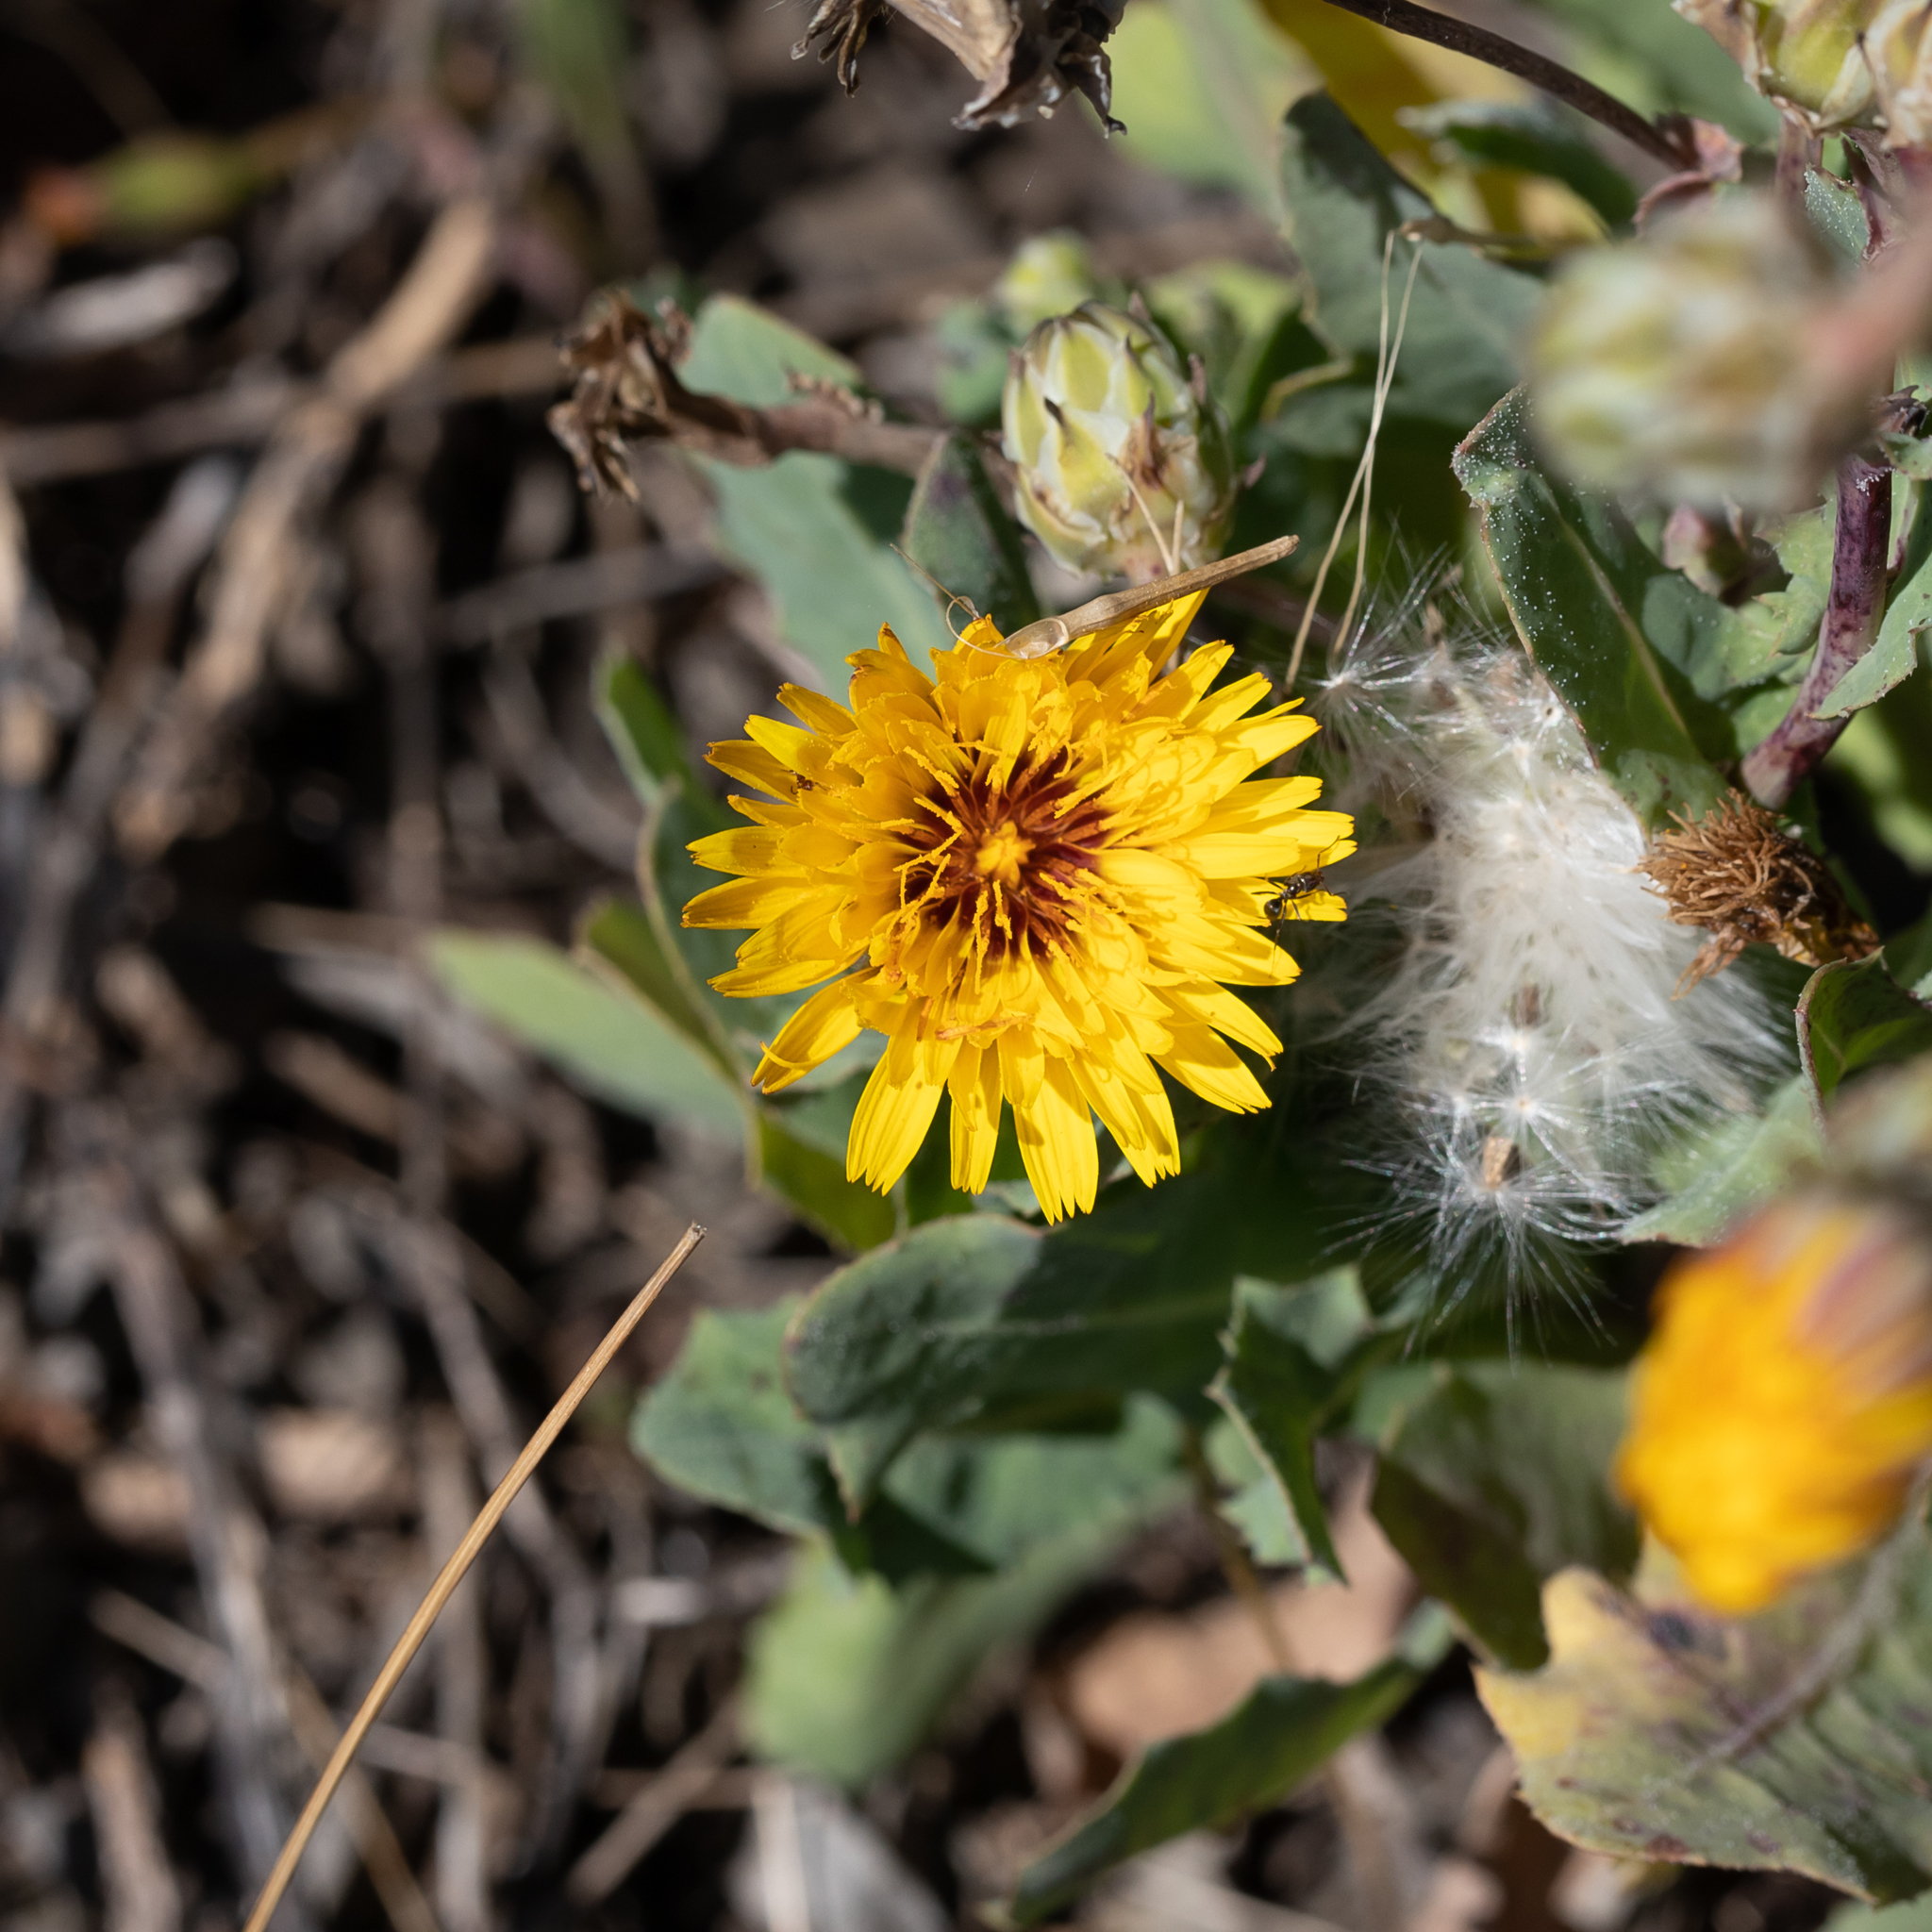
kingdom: Plantae
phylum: Tracheophyta
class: Magnoliopsida
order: Asterales
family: Asteraceae
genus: Reichardia
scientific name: Reichardia tingitana
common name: Reichardia
